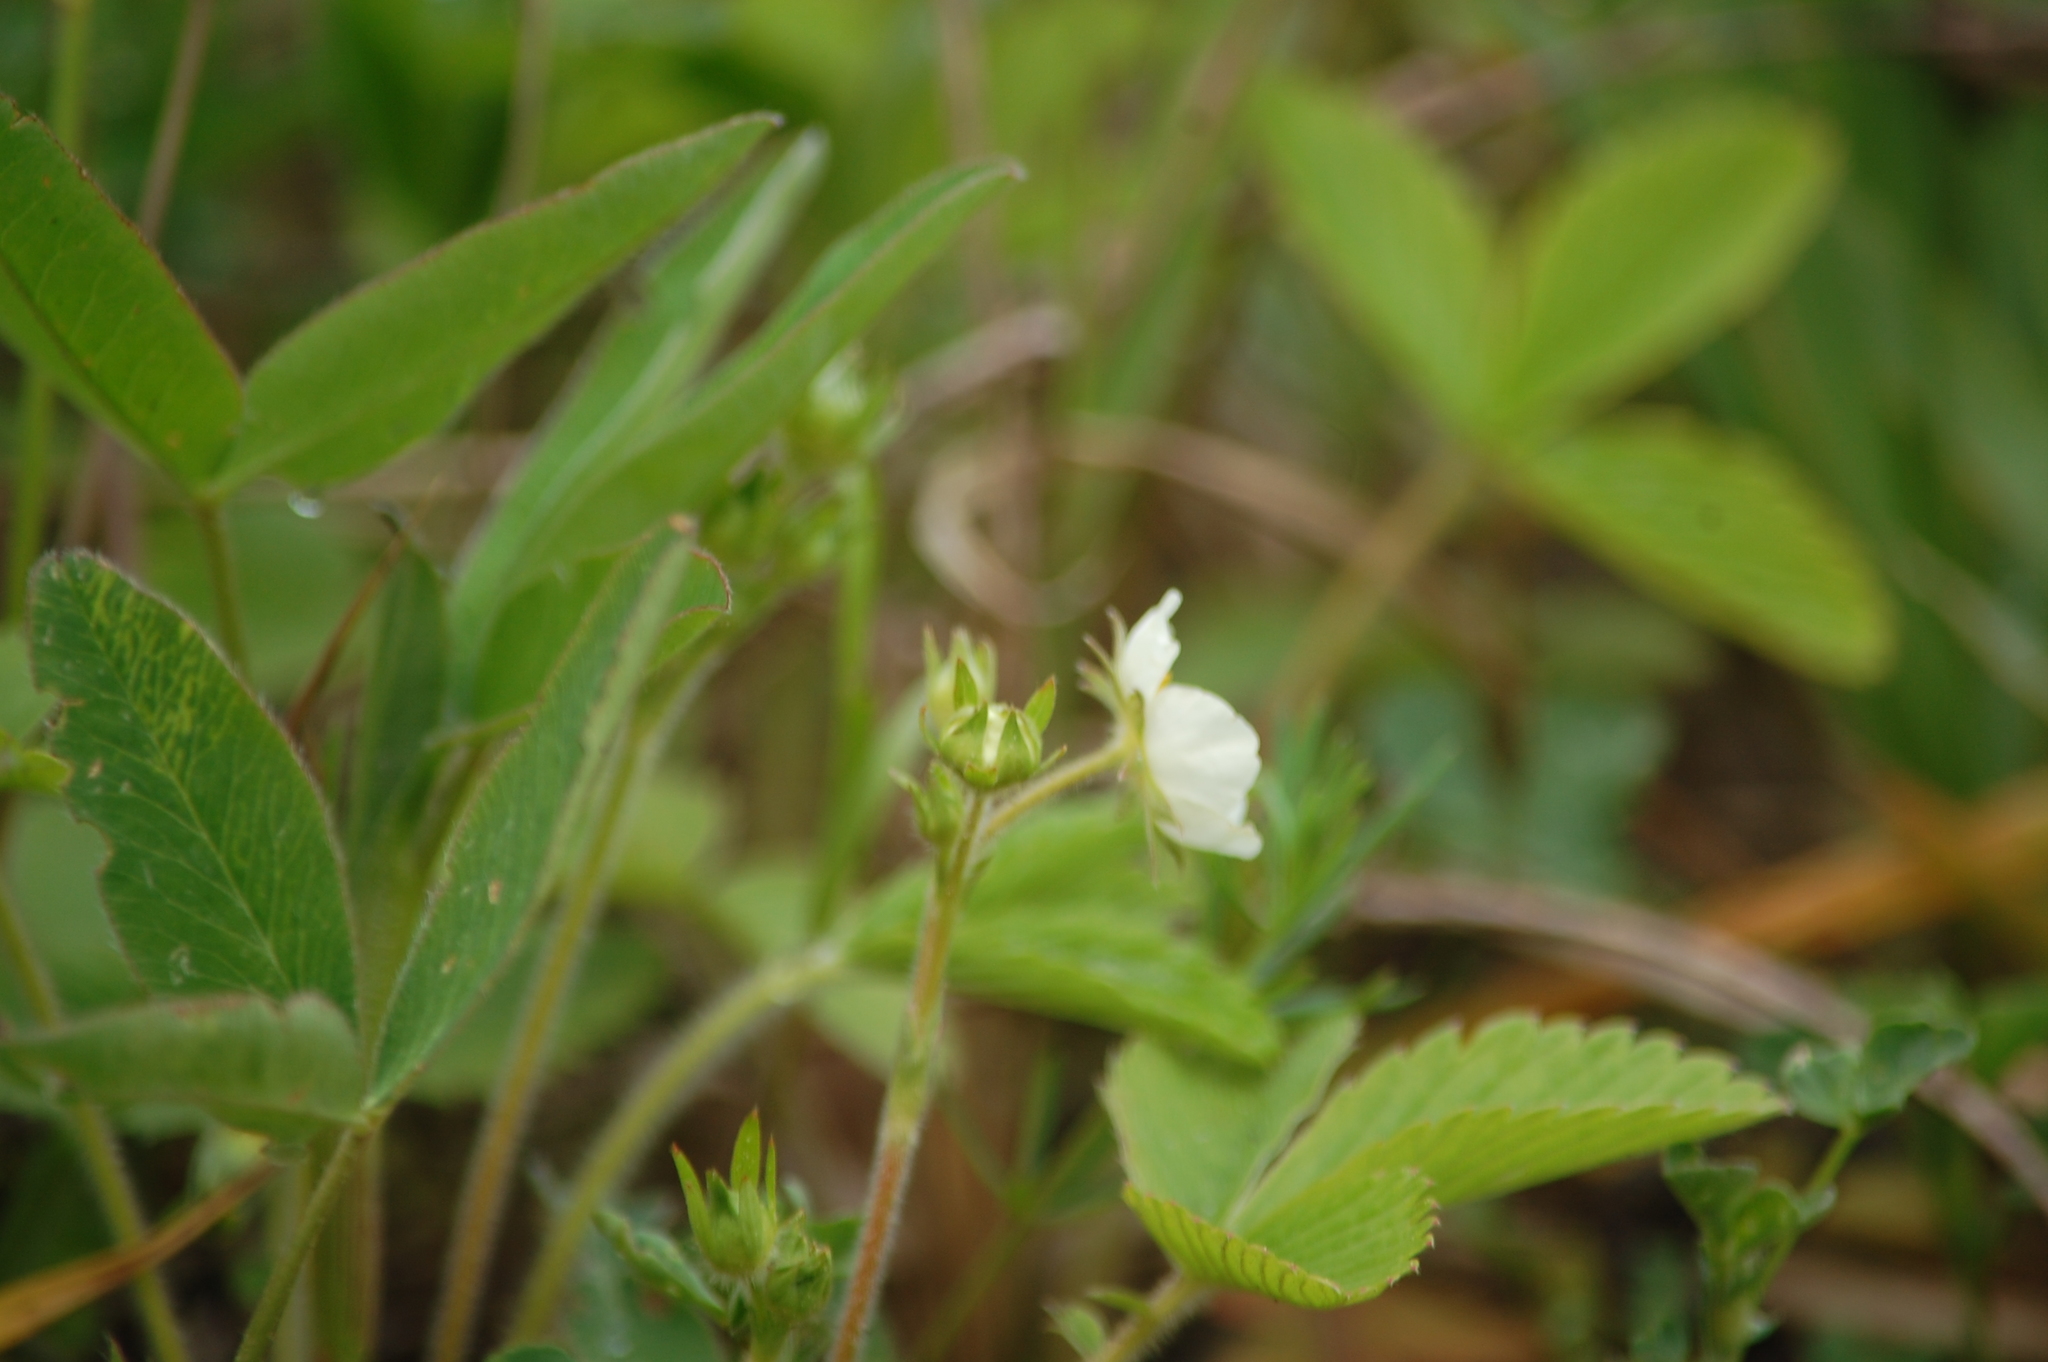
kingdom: Plantae
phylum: Tracheophyta
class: Magnoliopsida
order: Rosales
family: Rosaceae
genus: Fragaria
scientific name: Fragaria viridis
